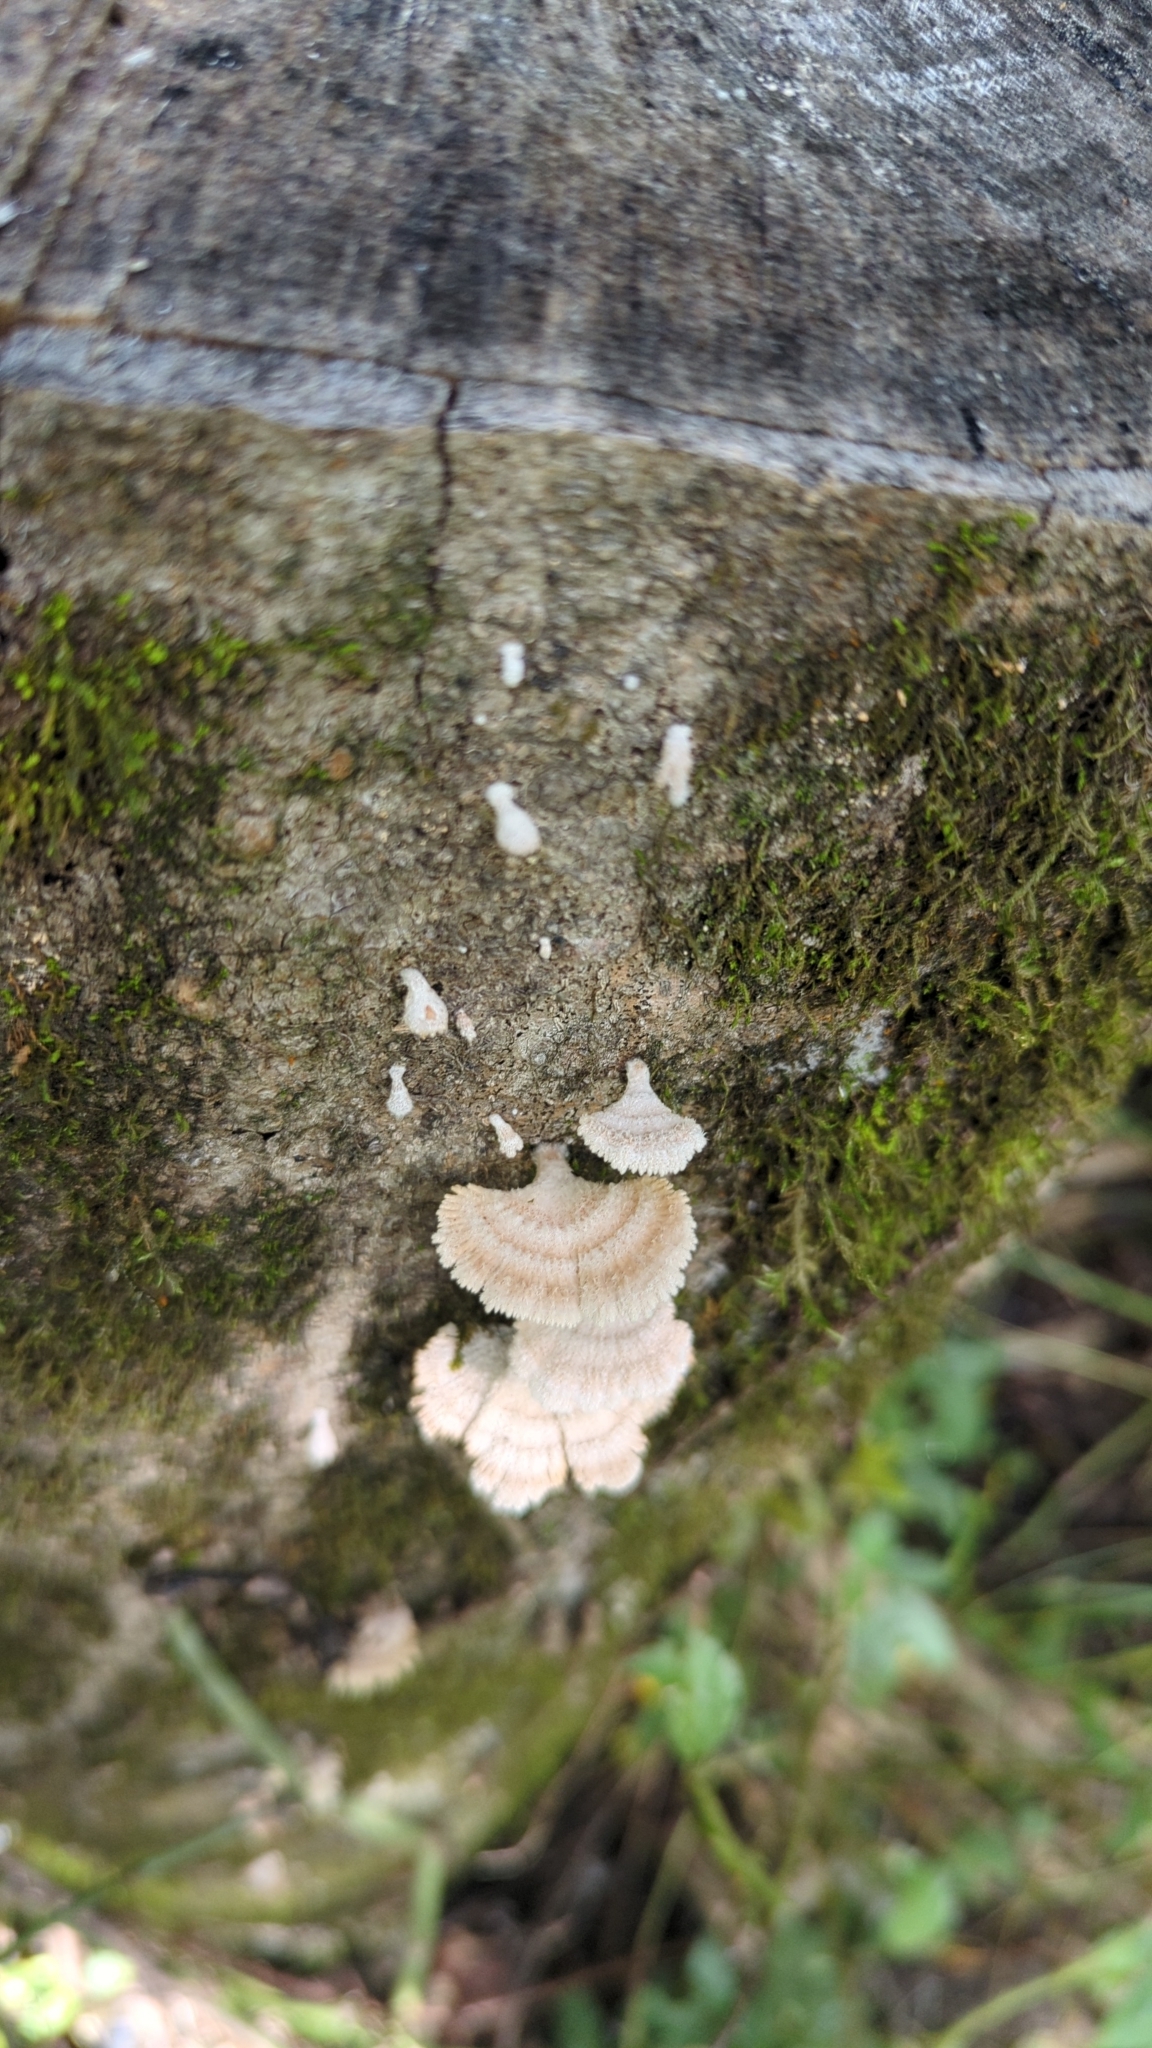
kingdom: Fungi
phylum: Basidiomycota
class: Agaricomycetes
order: Agaricales
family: Schizophyllaceae
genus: Schizophyllum
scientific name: Schizophyllum commune
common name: Common porecrust
